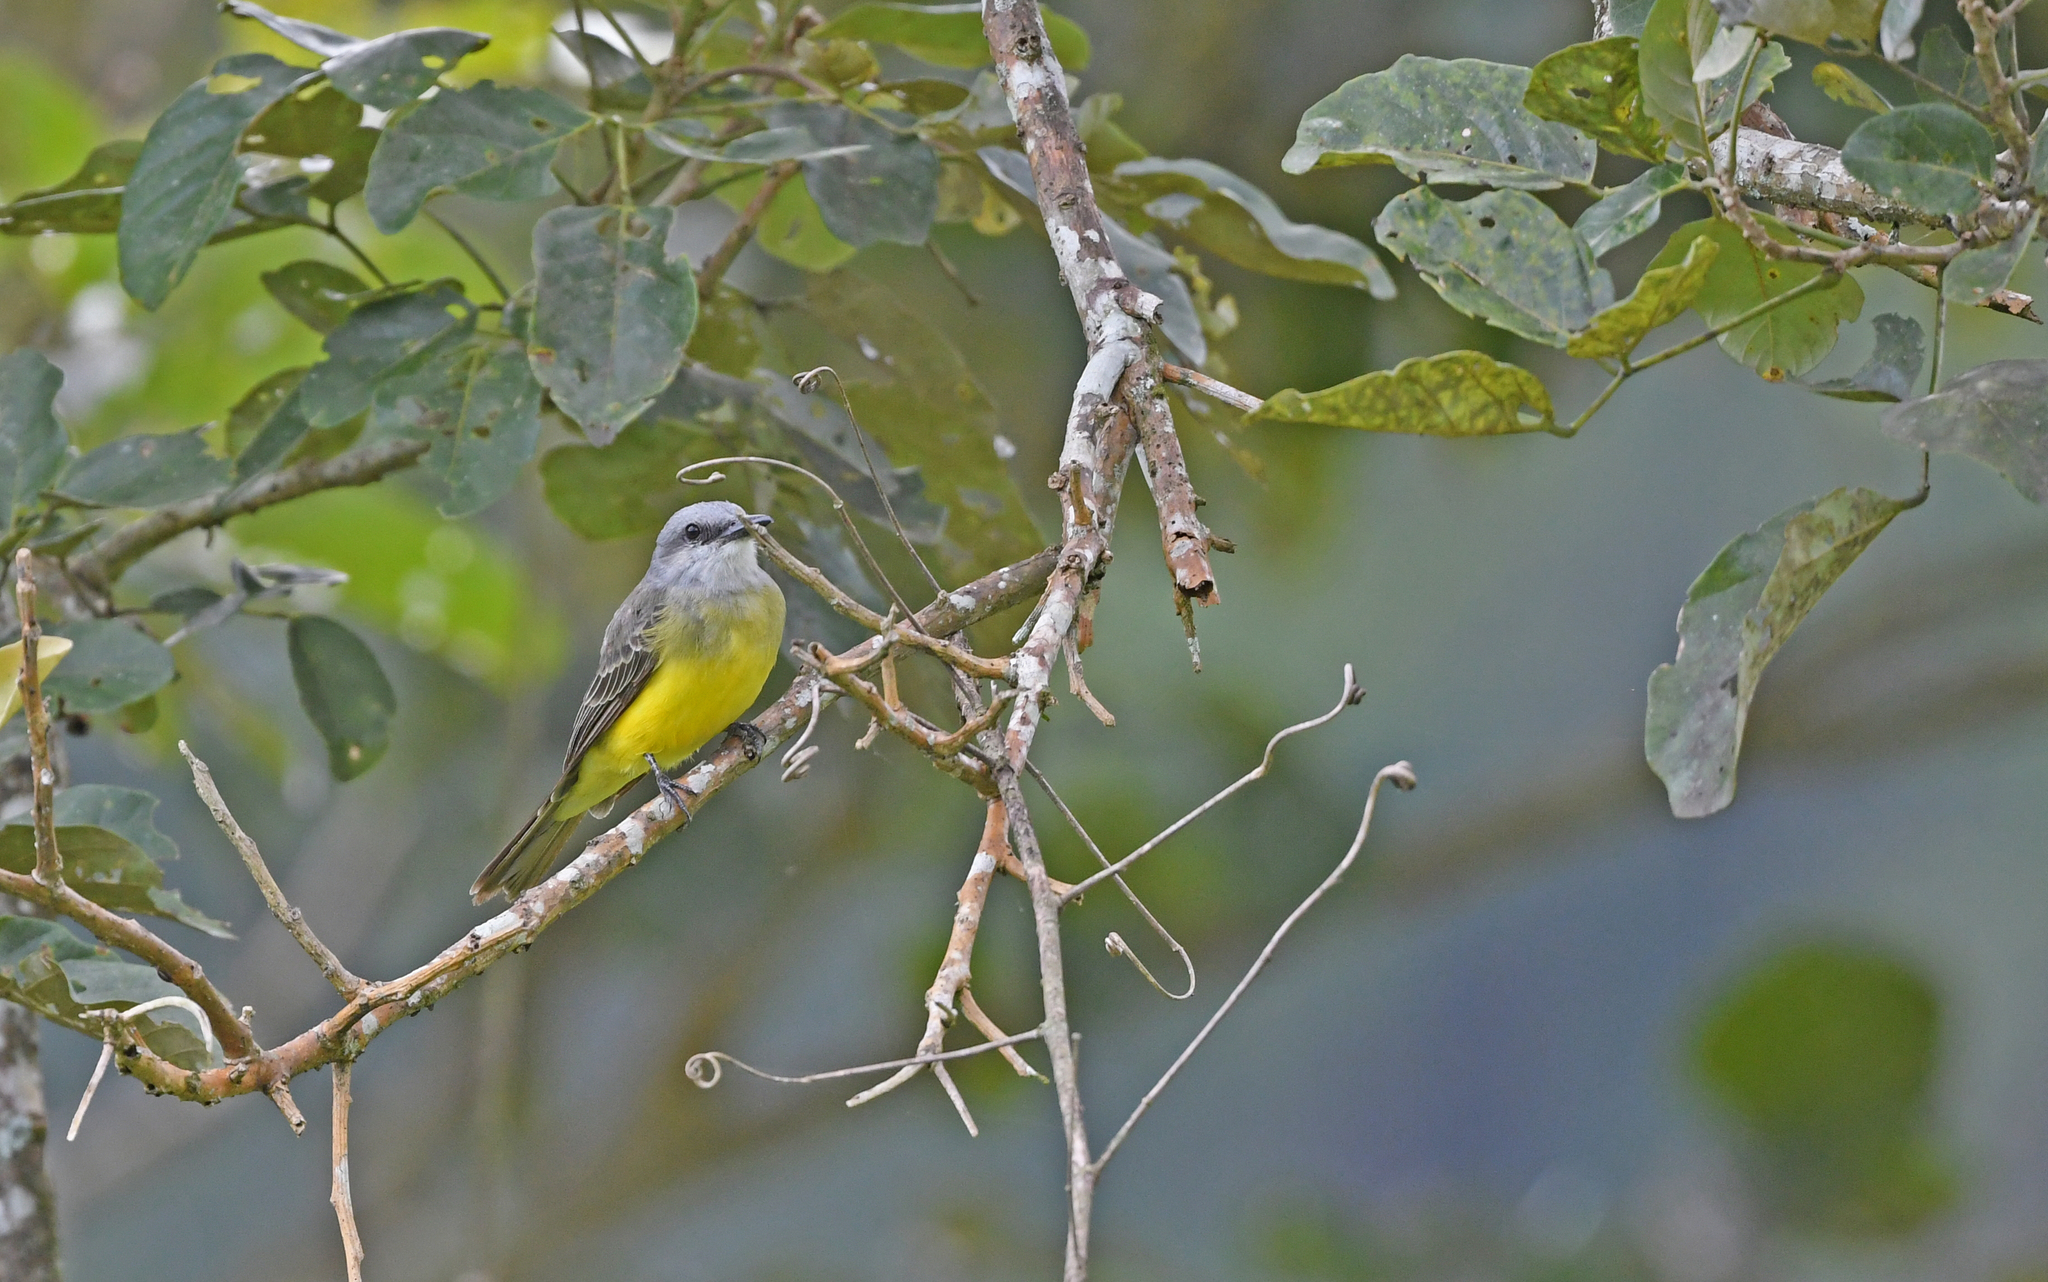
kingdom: Animalia
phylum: Chordata
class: Aves
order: Passeriformes
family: Tyrannidae
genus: Tyrannus
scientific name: Tyrannus melancholicus
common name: Tropical kingbird
